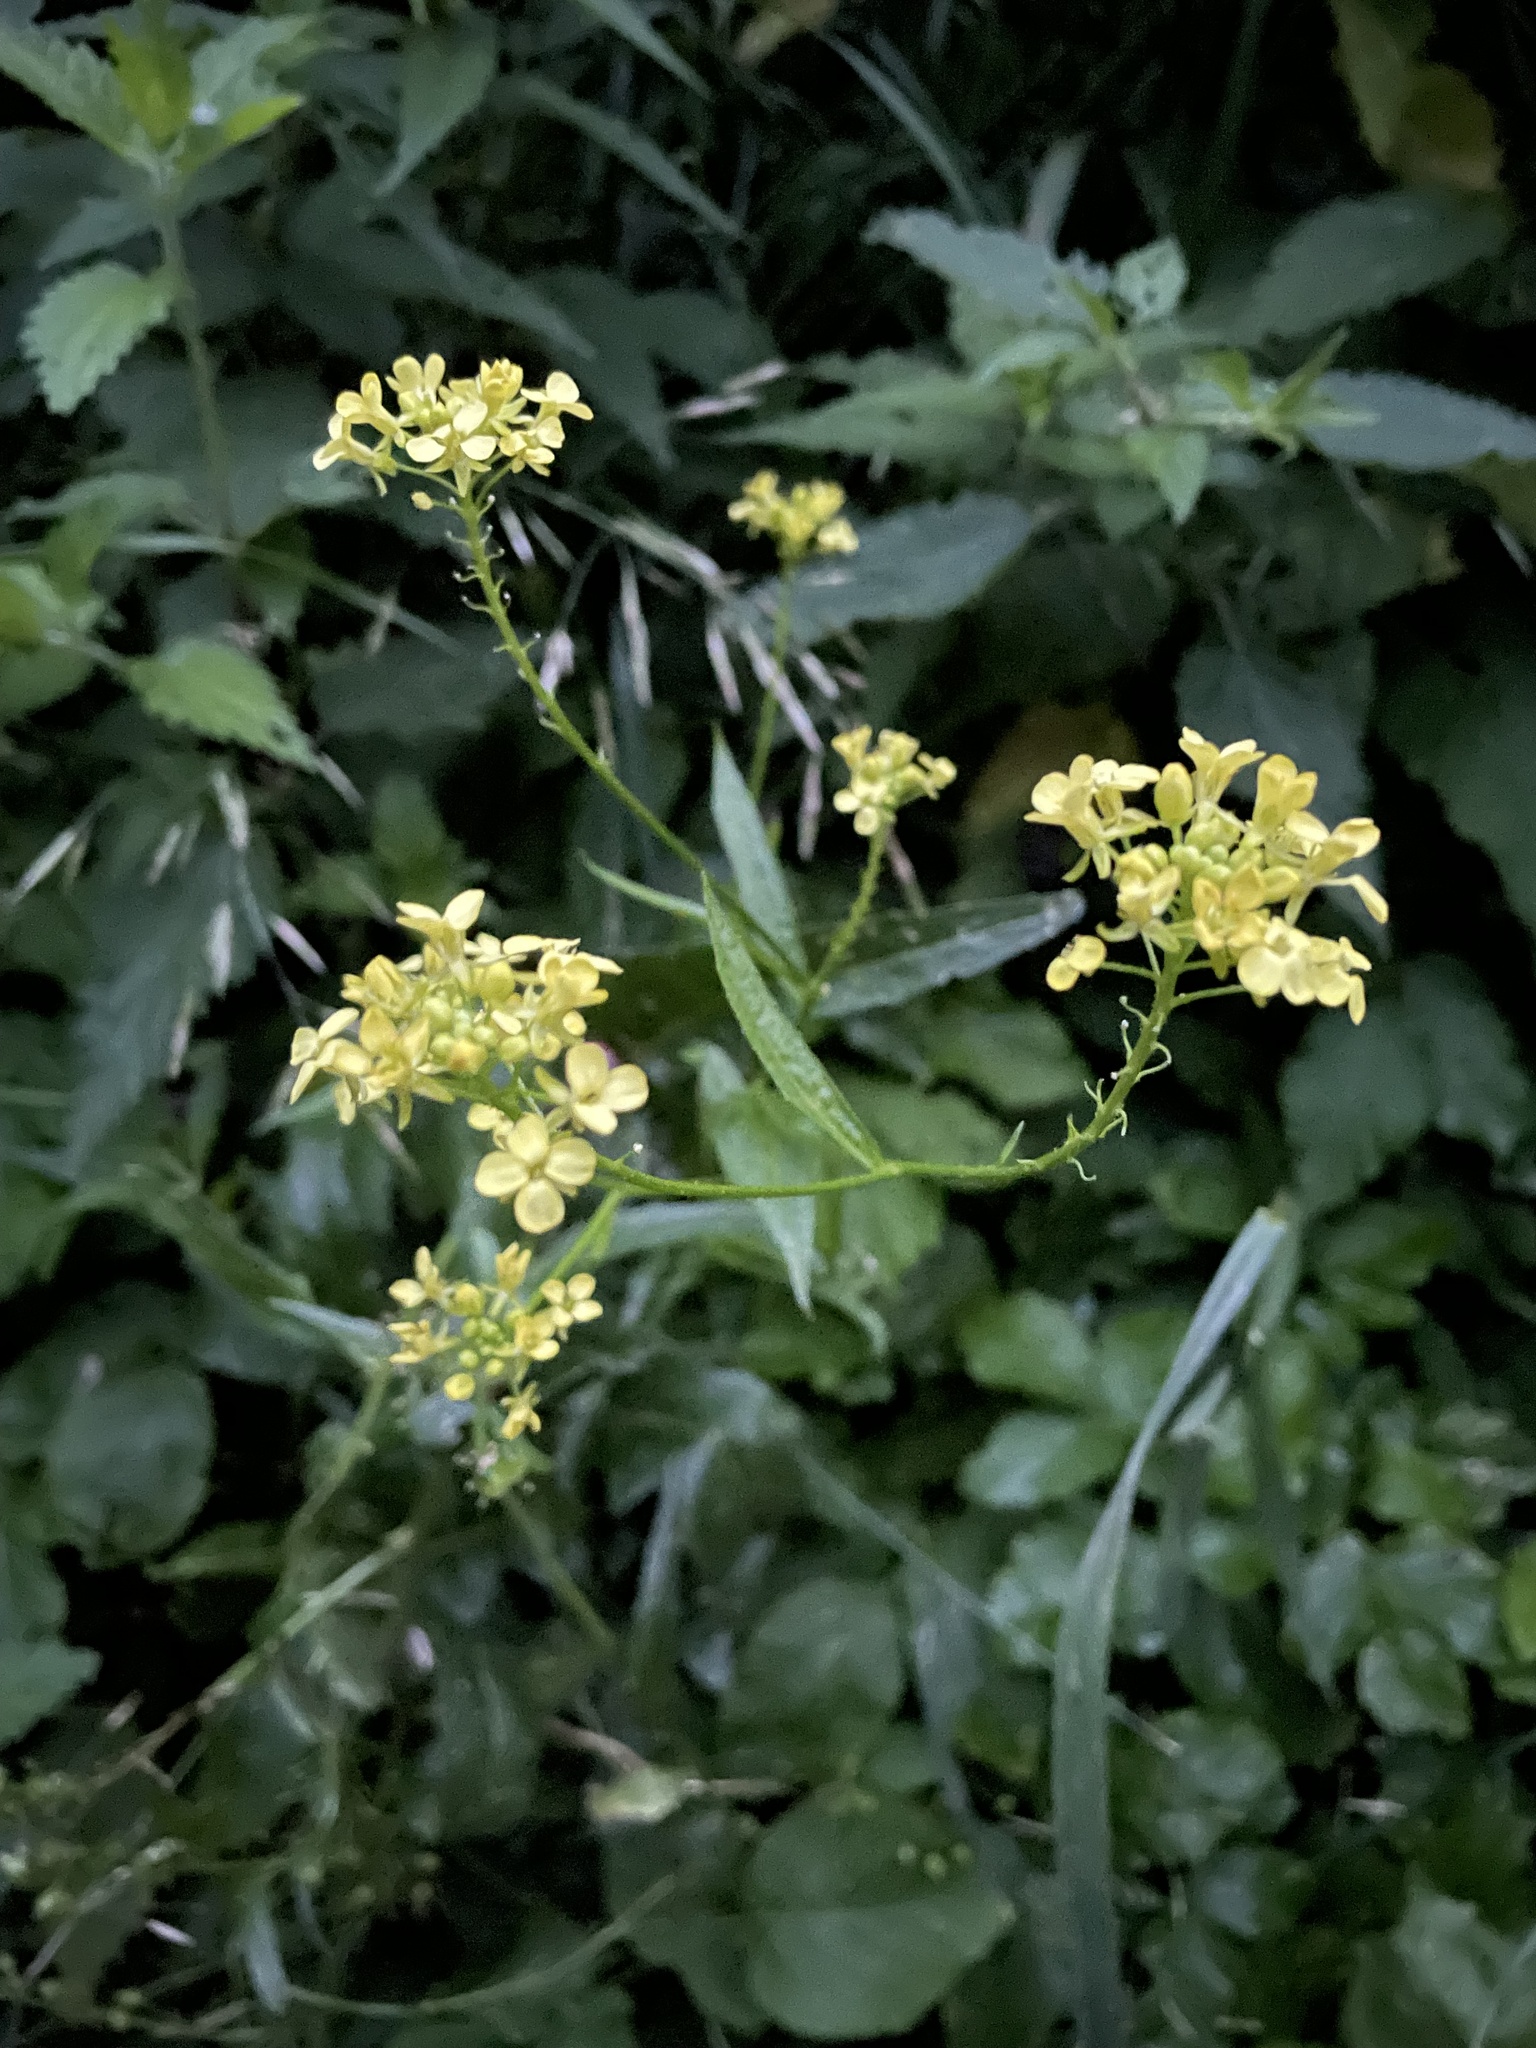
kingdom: Plantae
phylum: Tracheophyta
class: Magnoliopsida
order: Brassicales
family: Brassicaceae
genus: Bunias
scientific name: Bunias orientalis
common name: Warty-cabbage
